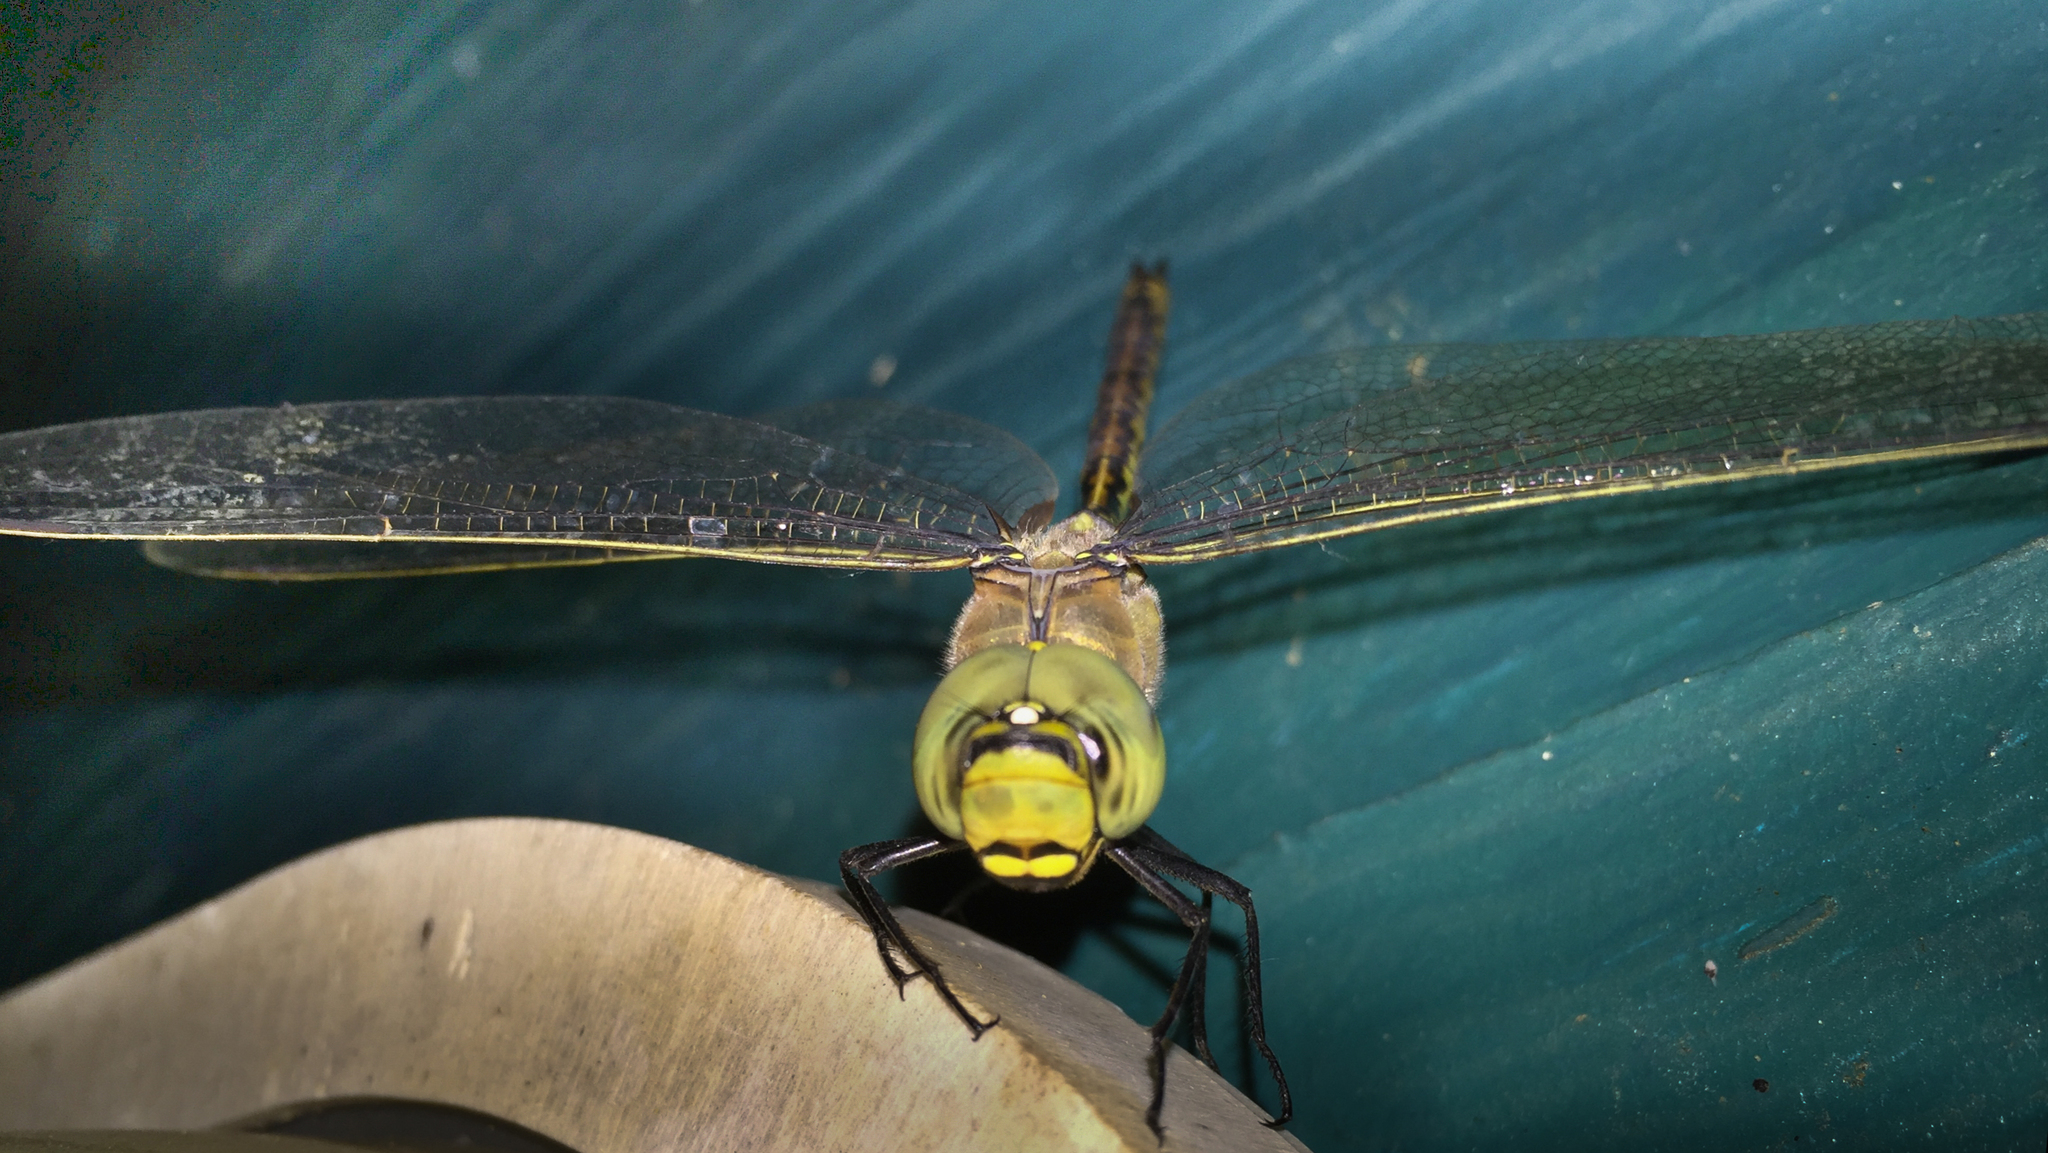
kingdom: Animalia
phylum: Arthropoda
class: Insecta
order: Odonata
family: Aeshnidae
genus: Anax
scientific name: Anax papuensis
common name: Australian emperor
